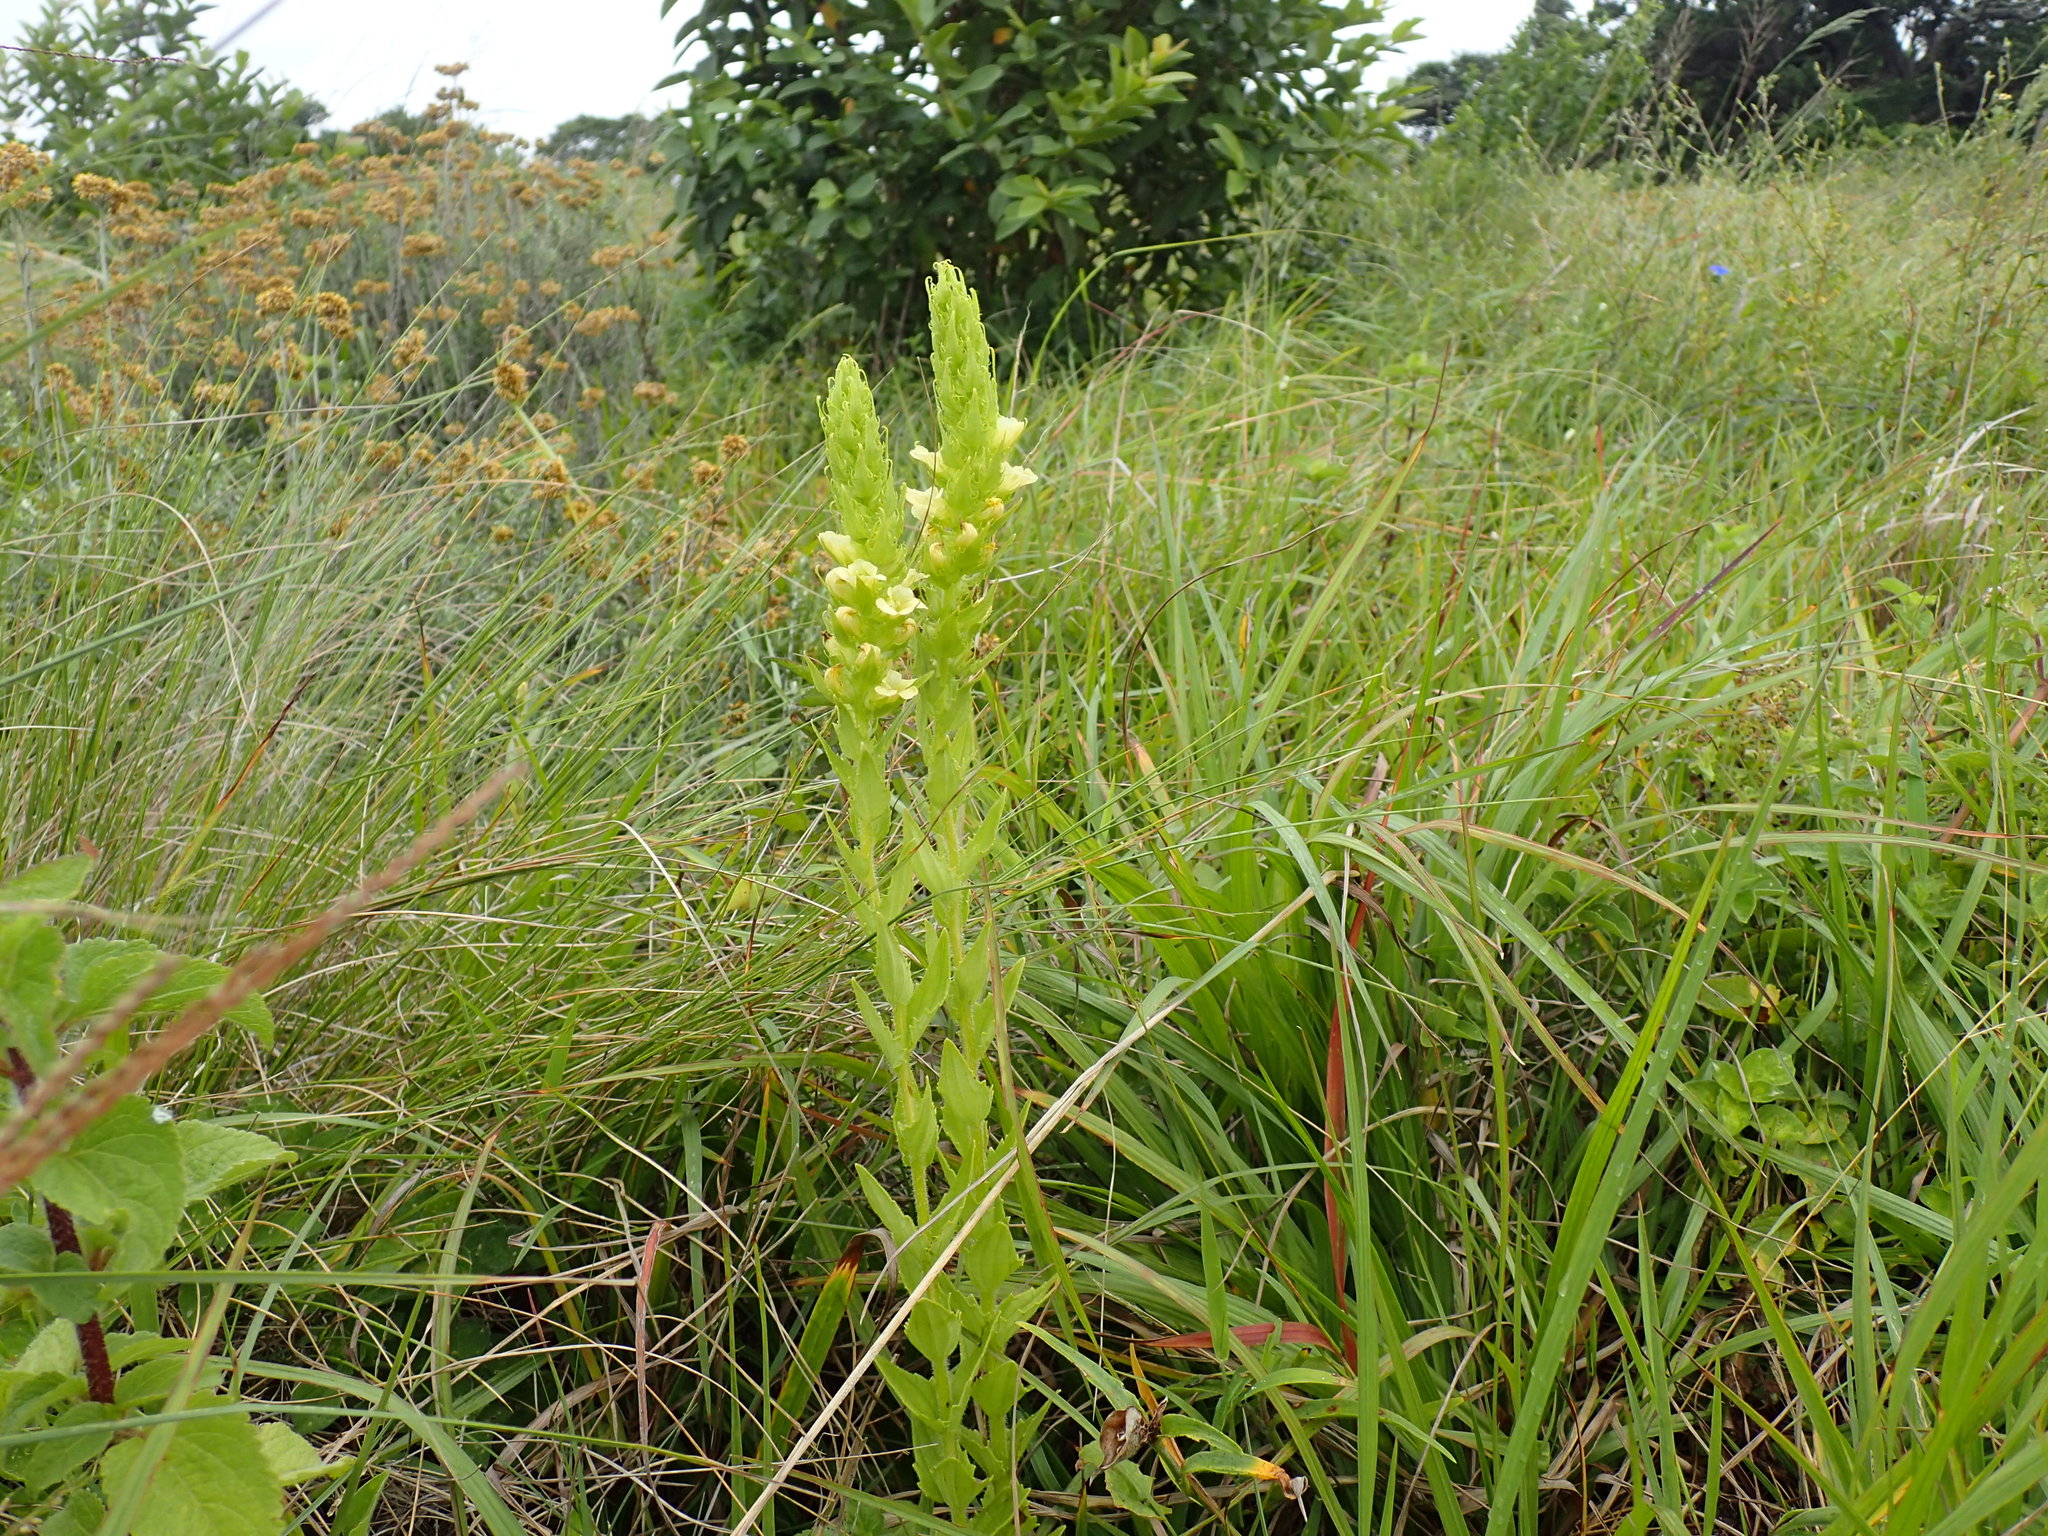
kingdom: Plantae
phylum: Tracheophyta
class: Magnoliopsida
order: Lamiales
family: Orobanchaceae
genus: Alectra
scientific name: Alectra sessiliflora
